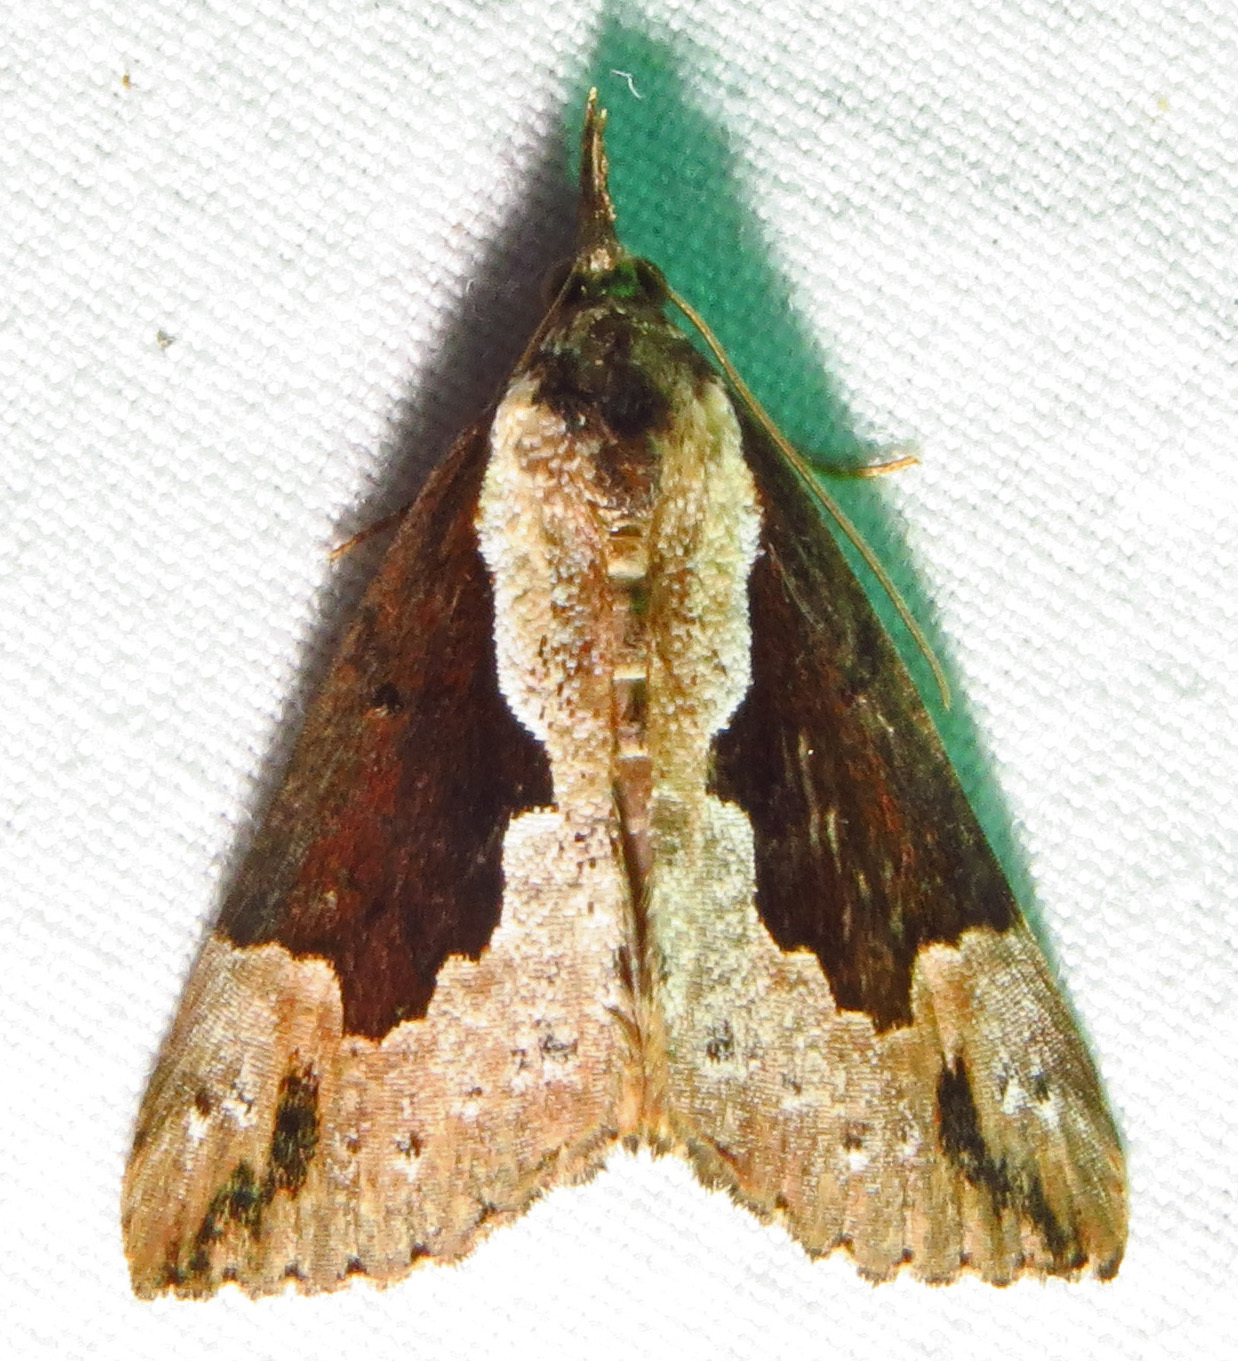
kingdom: Animalia
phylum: Arthropoda
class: Insecta
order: Lepidoptera
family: Erebidae
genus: Hypena
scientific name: Hypena baltimoralis
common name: Baltimore snout
